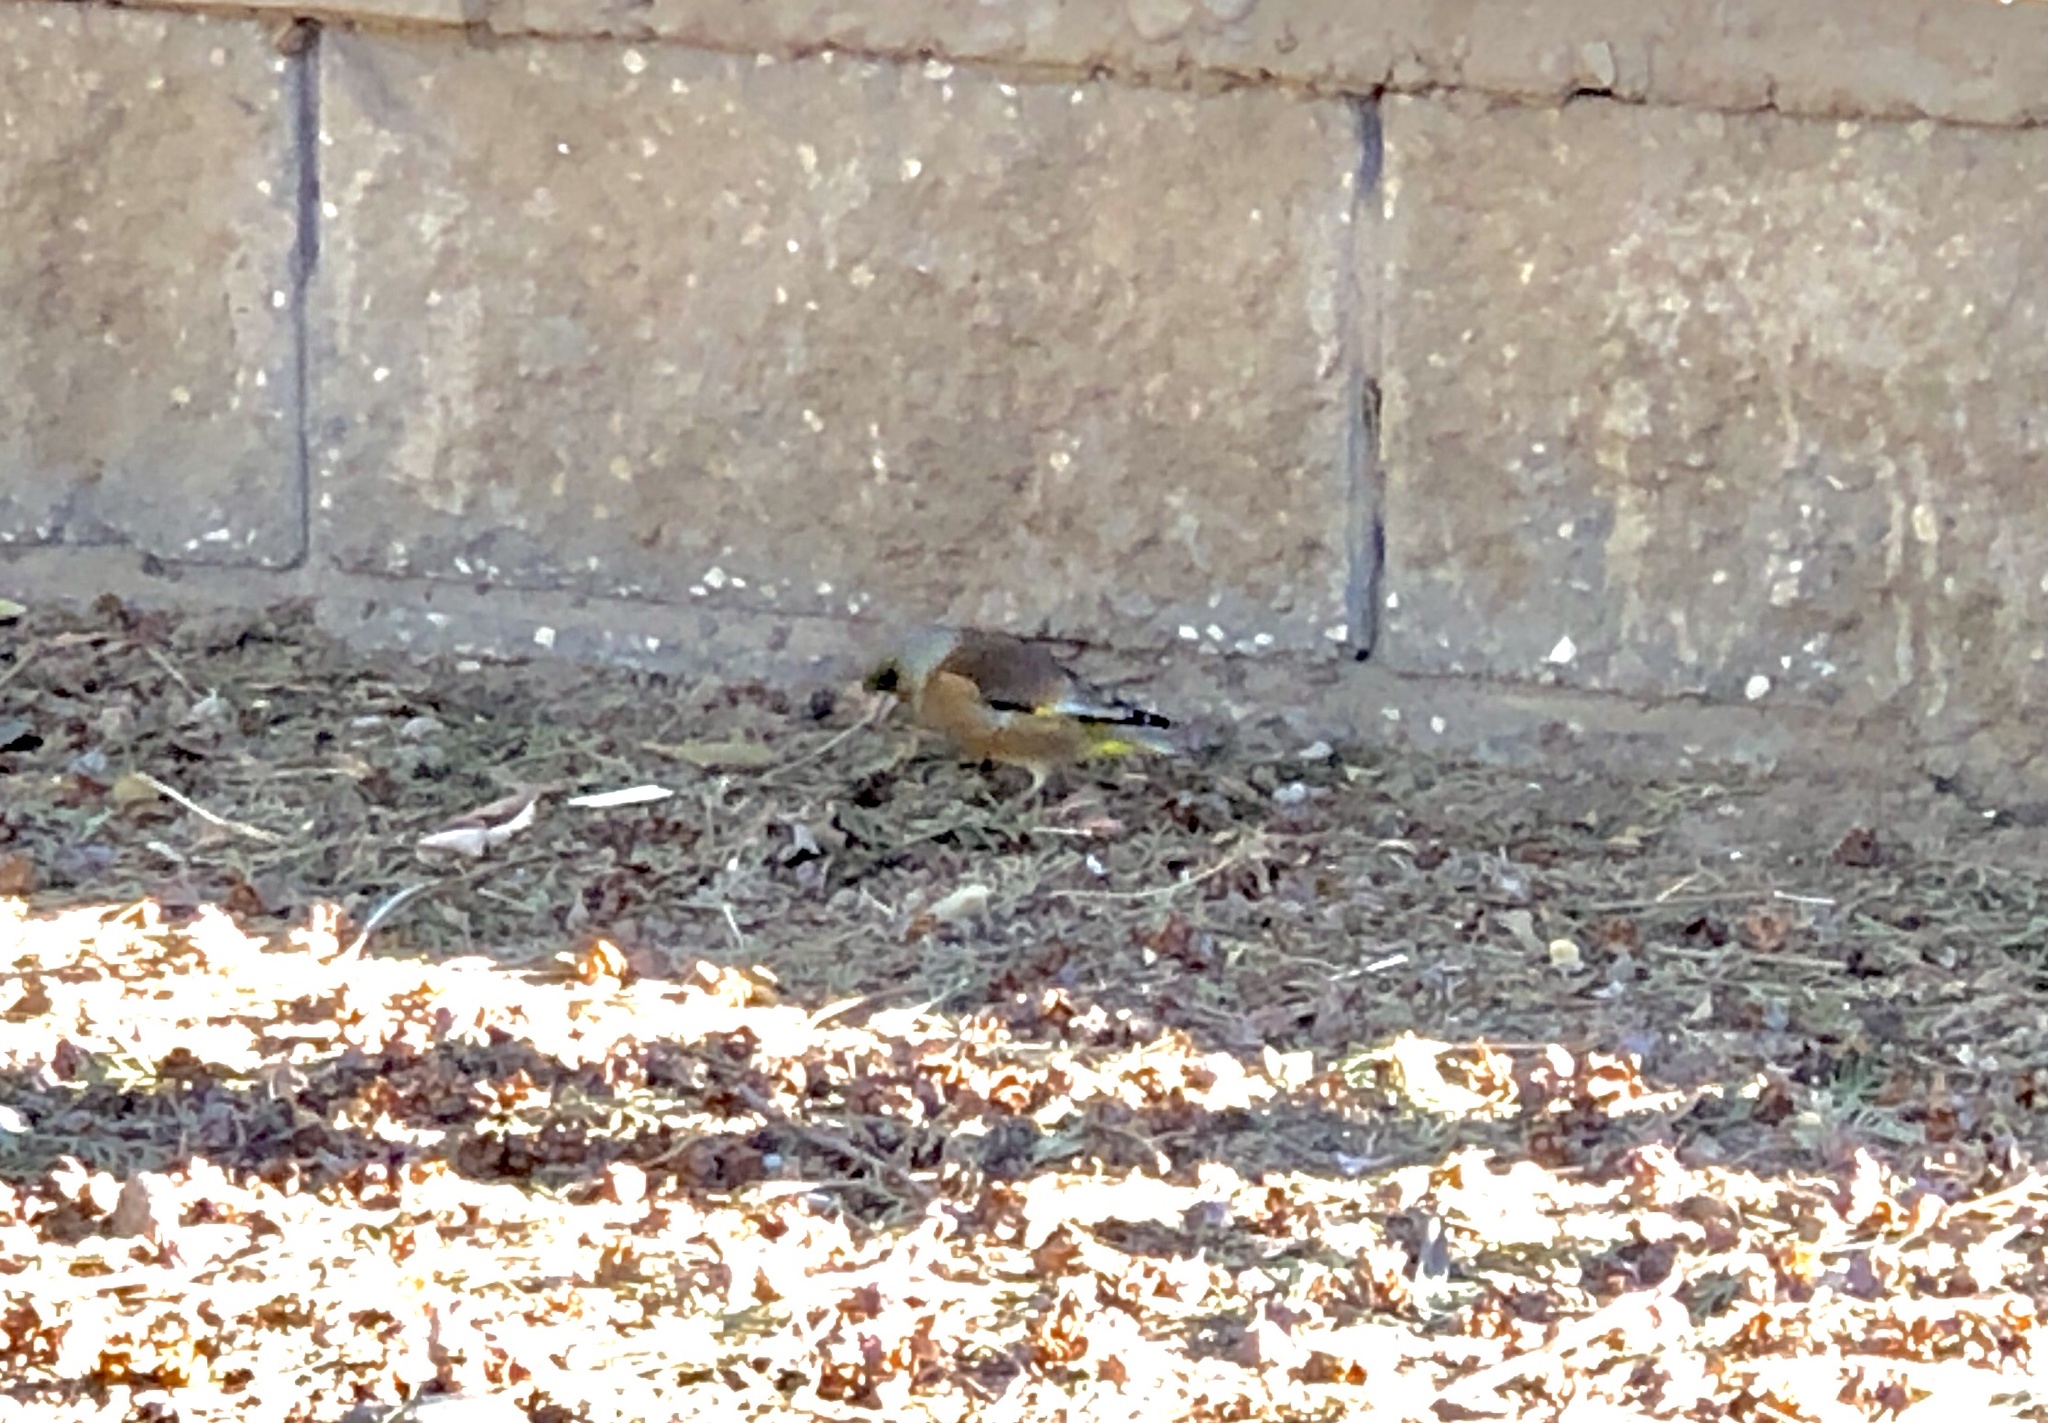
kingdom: Plantae
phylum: Tracheophyta
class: Liliopsida
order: Poales
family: Poaceae
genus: Chloris
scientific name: Chloris sinica
